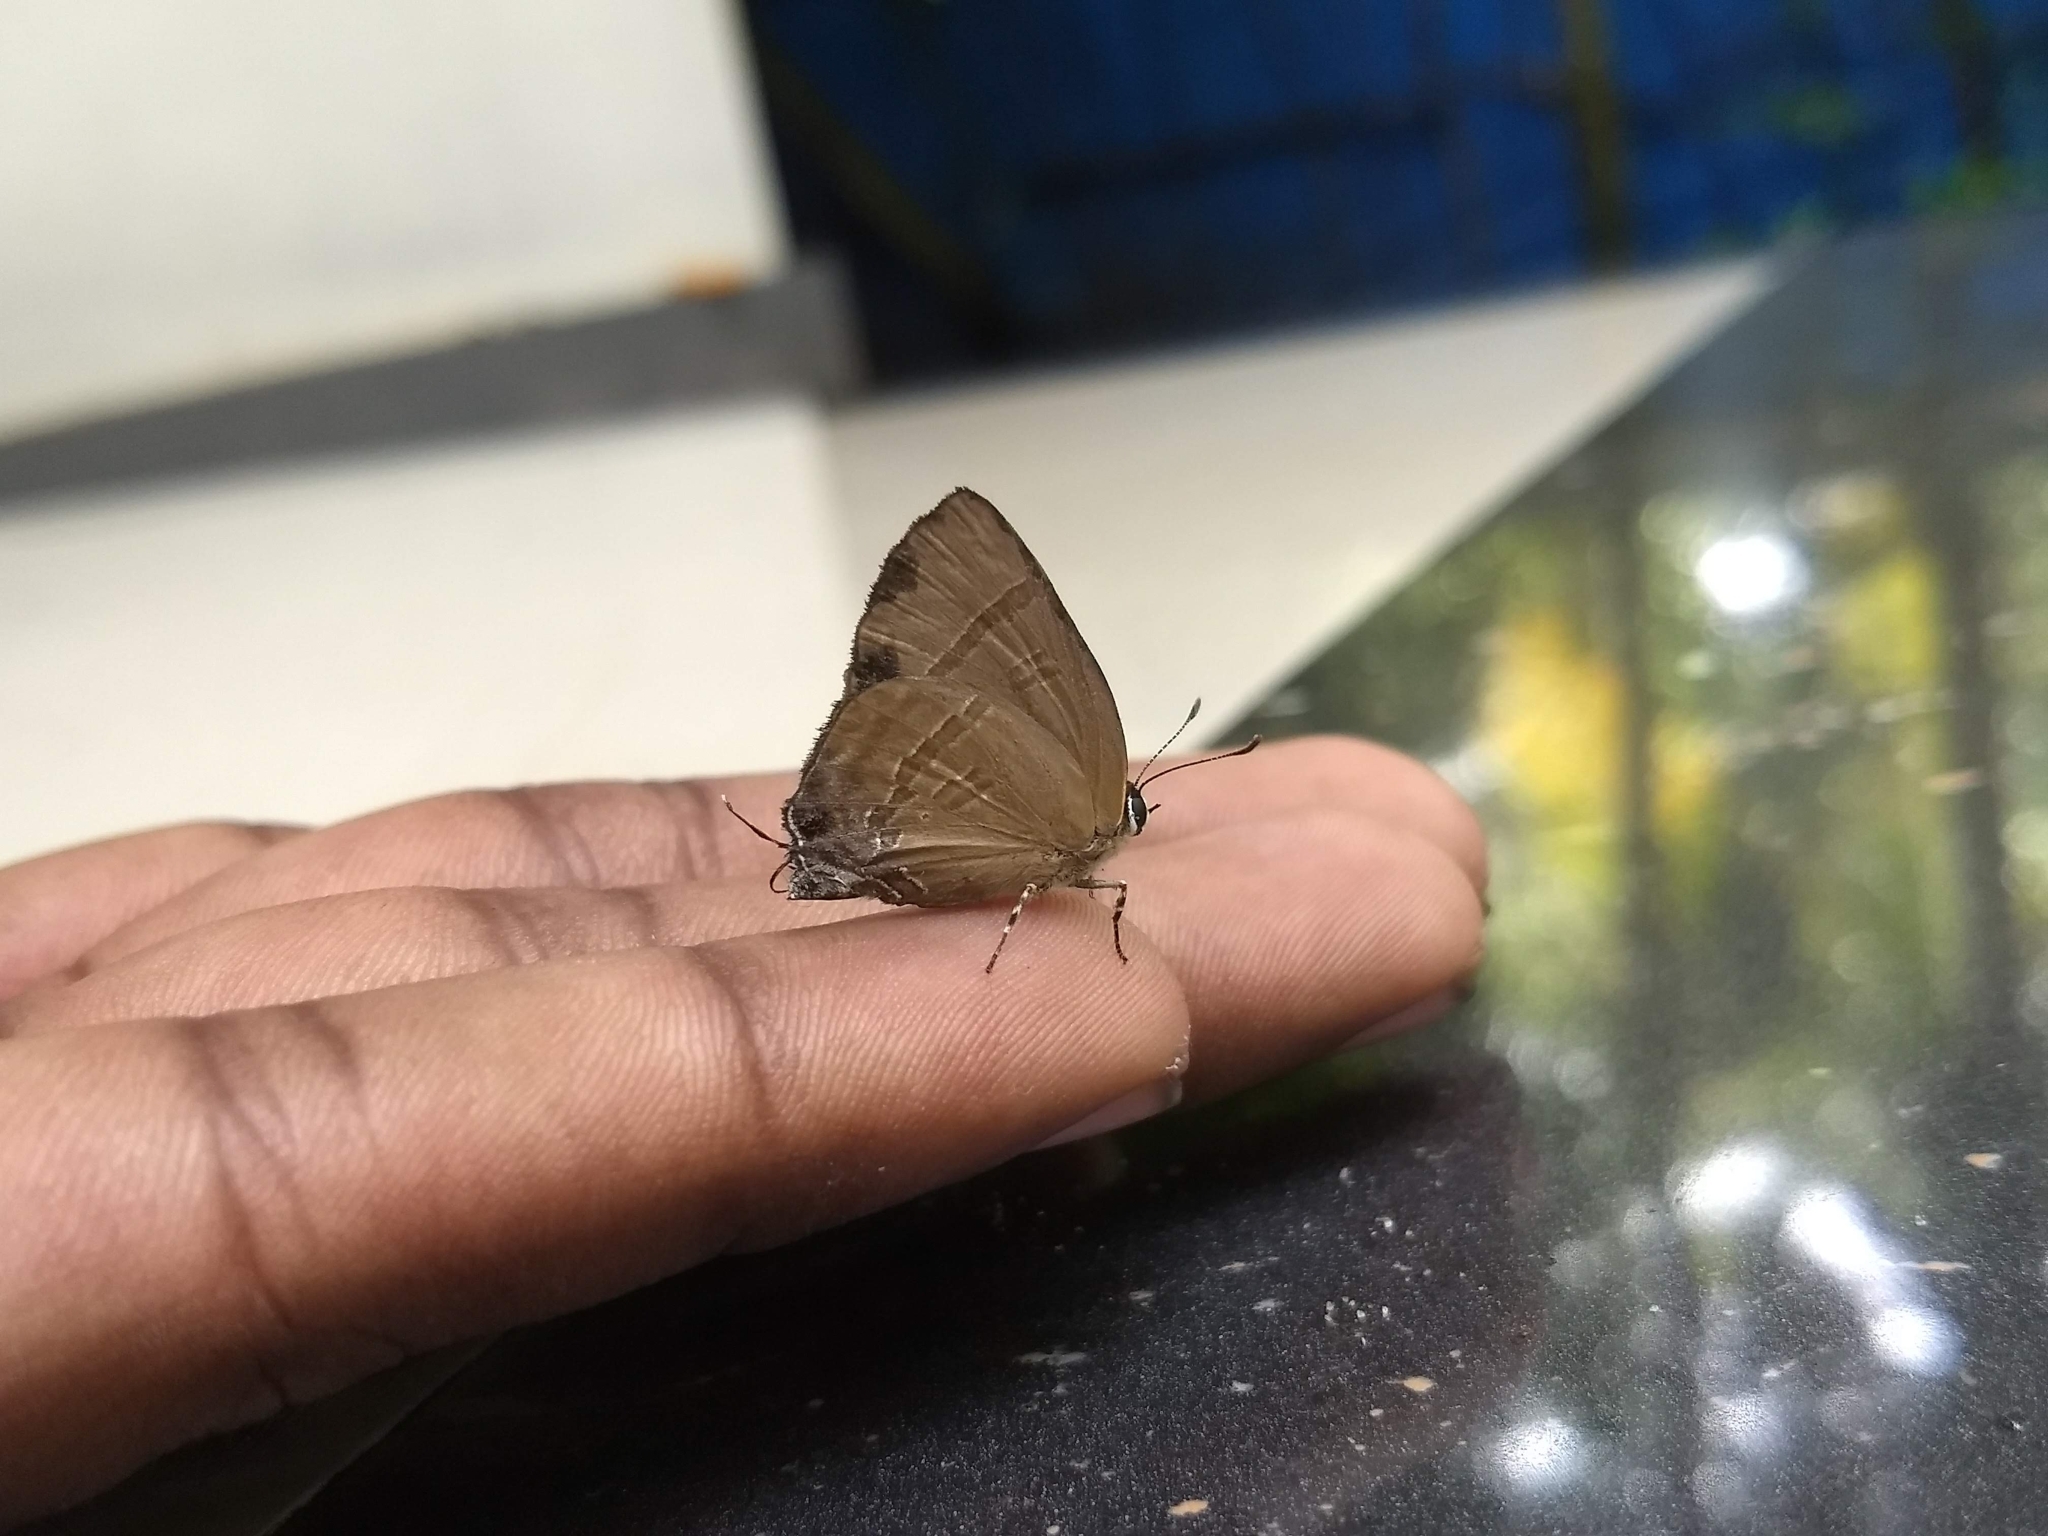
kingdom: Animalia
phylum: Arthropoda
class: Insecta
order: Lepidoptera
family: Lycaenidae
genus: Rapala
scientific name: Rapala manea
